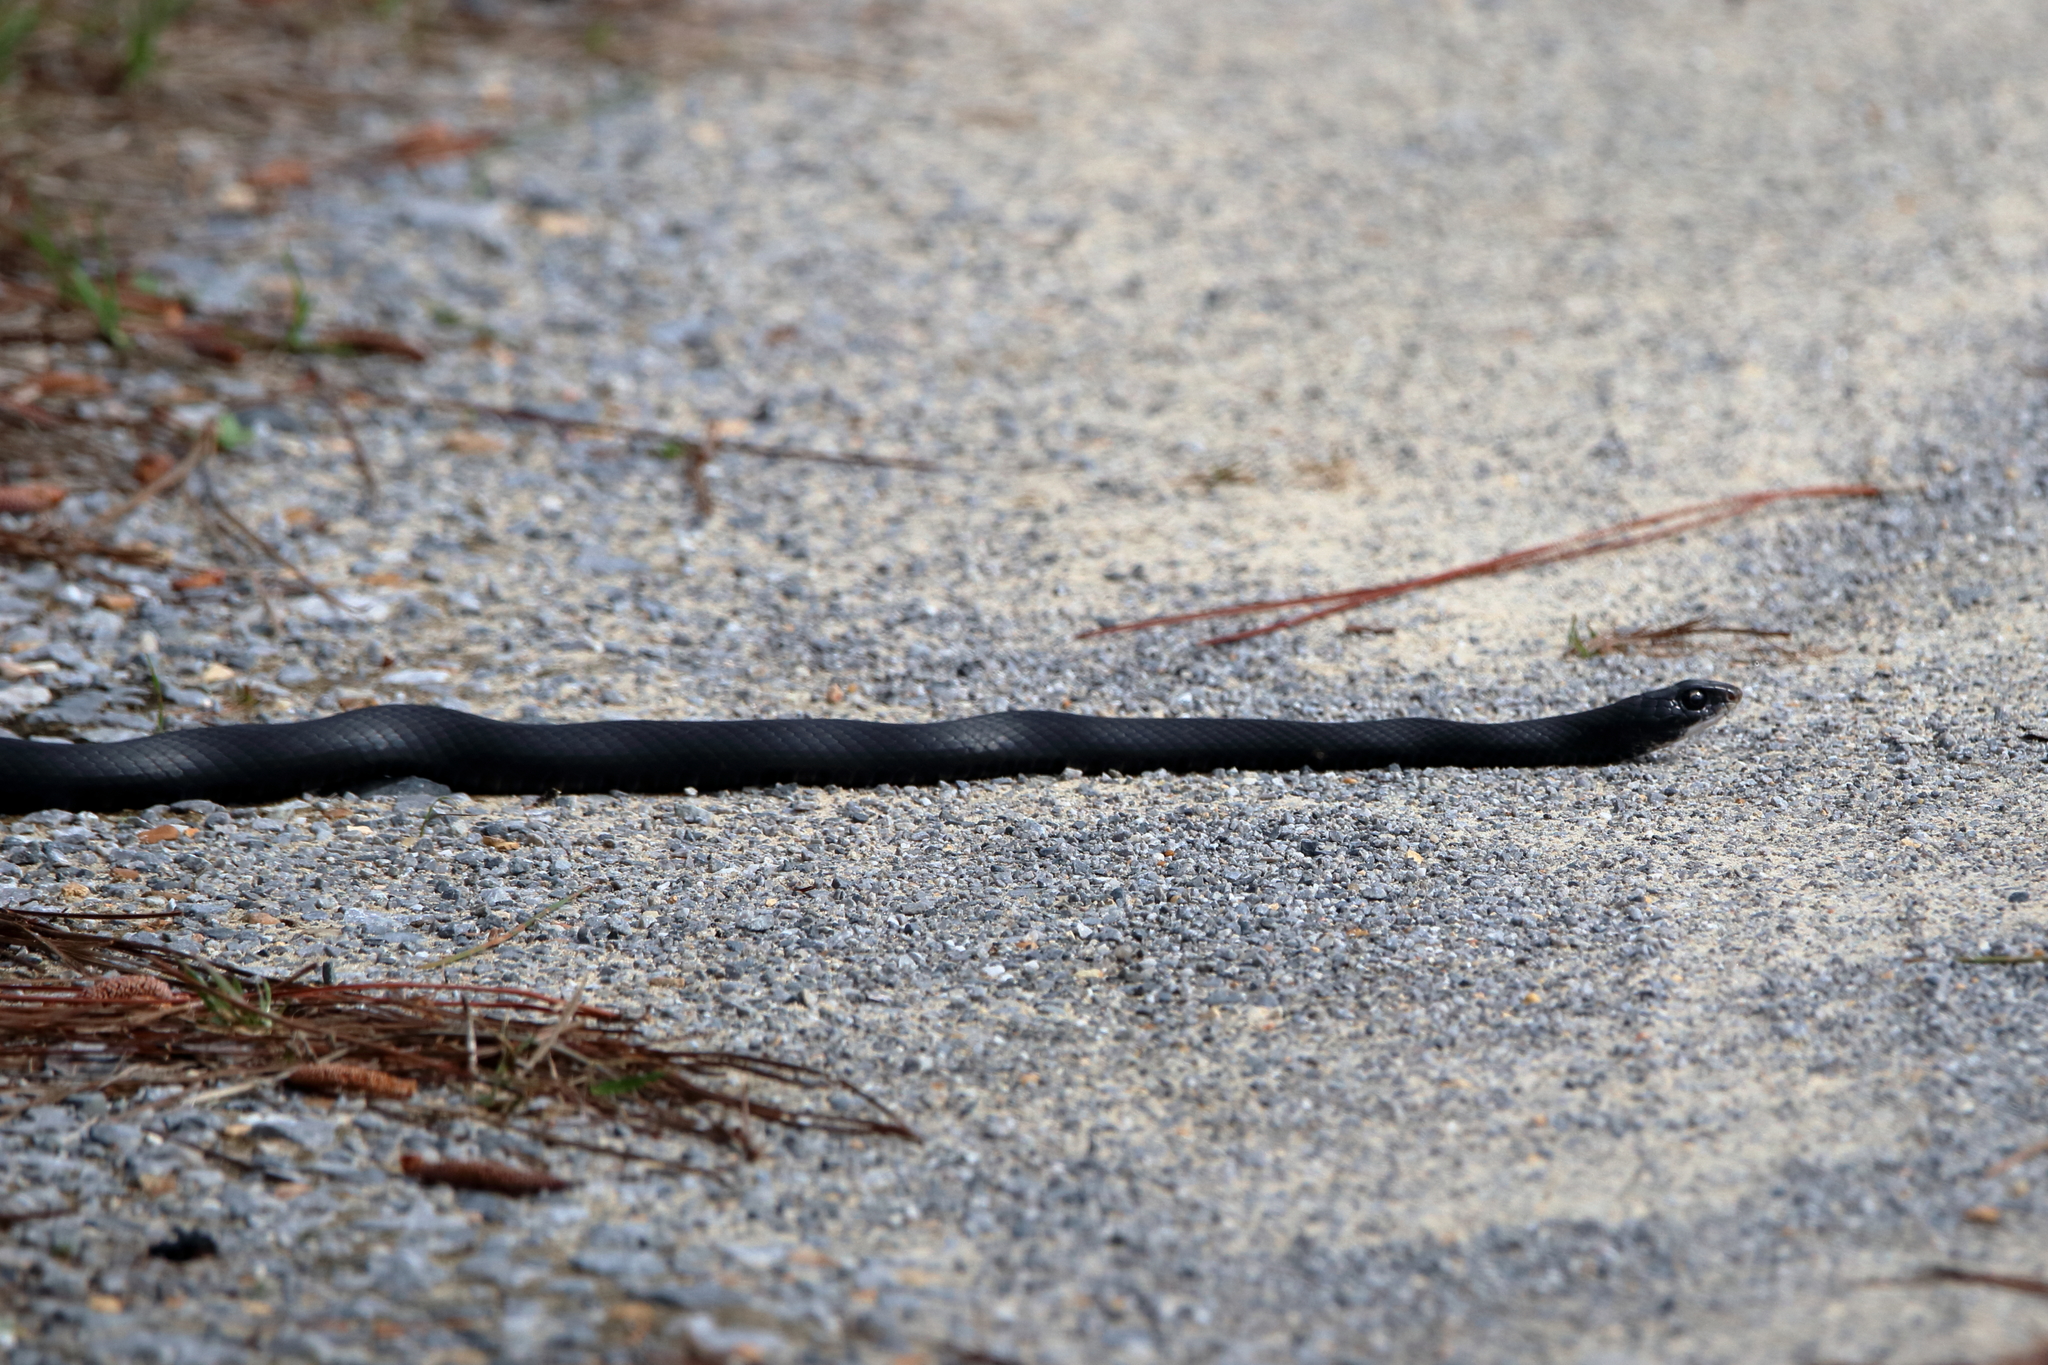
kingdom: Animalia
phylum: Chordata
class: Squamata
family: Colubridae
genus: Coluber
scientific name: Coluber constrictor
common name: Eastern racer
